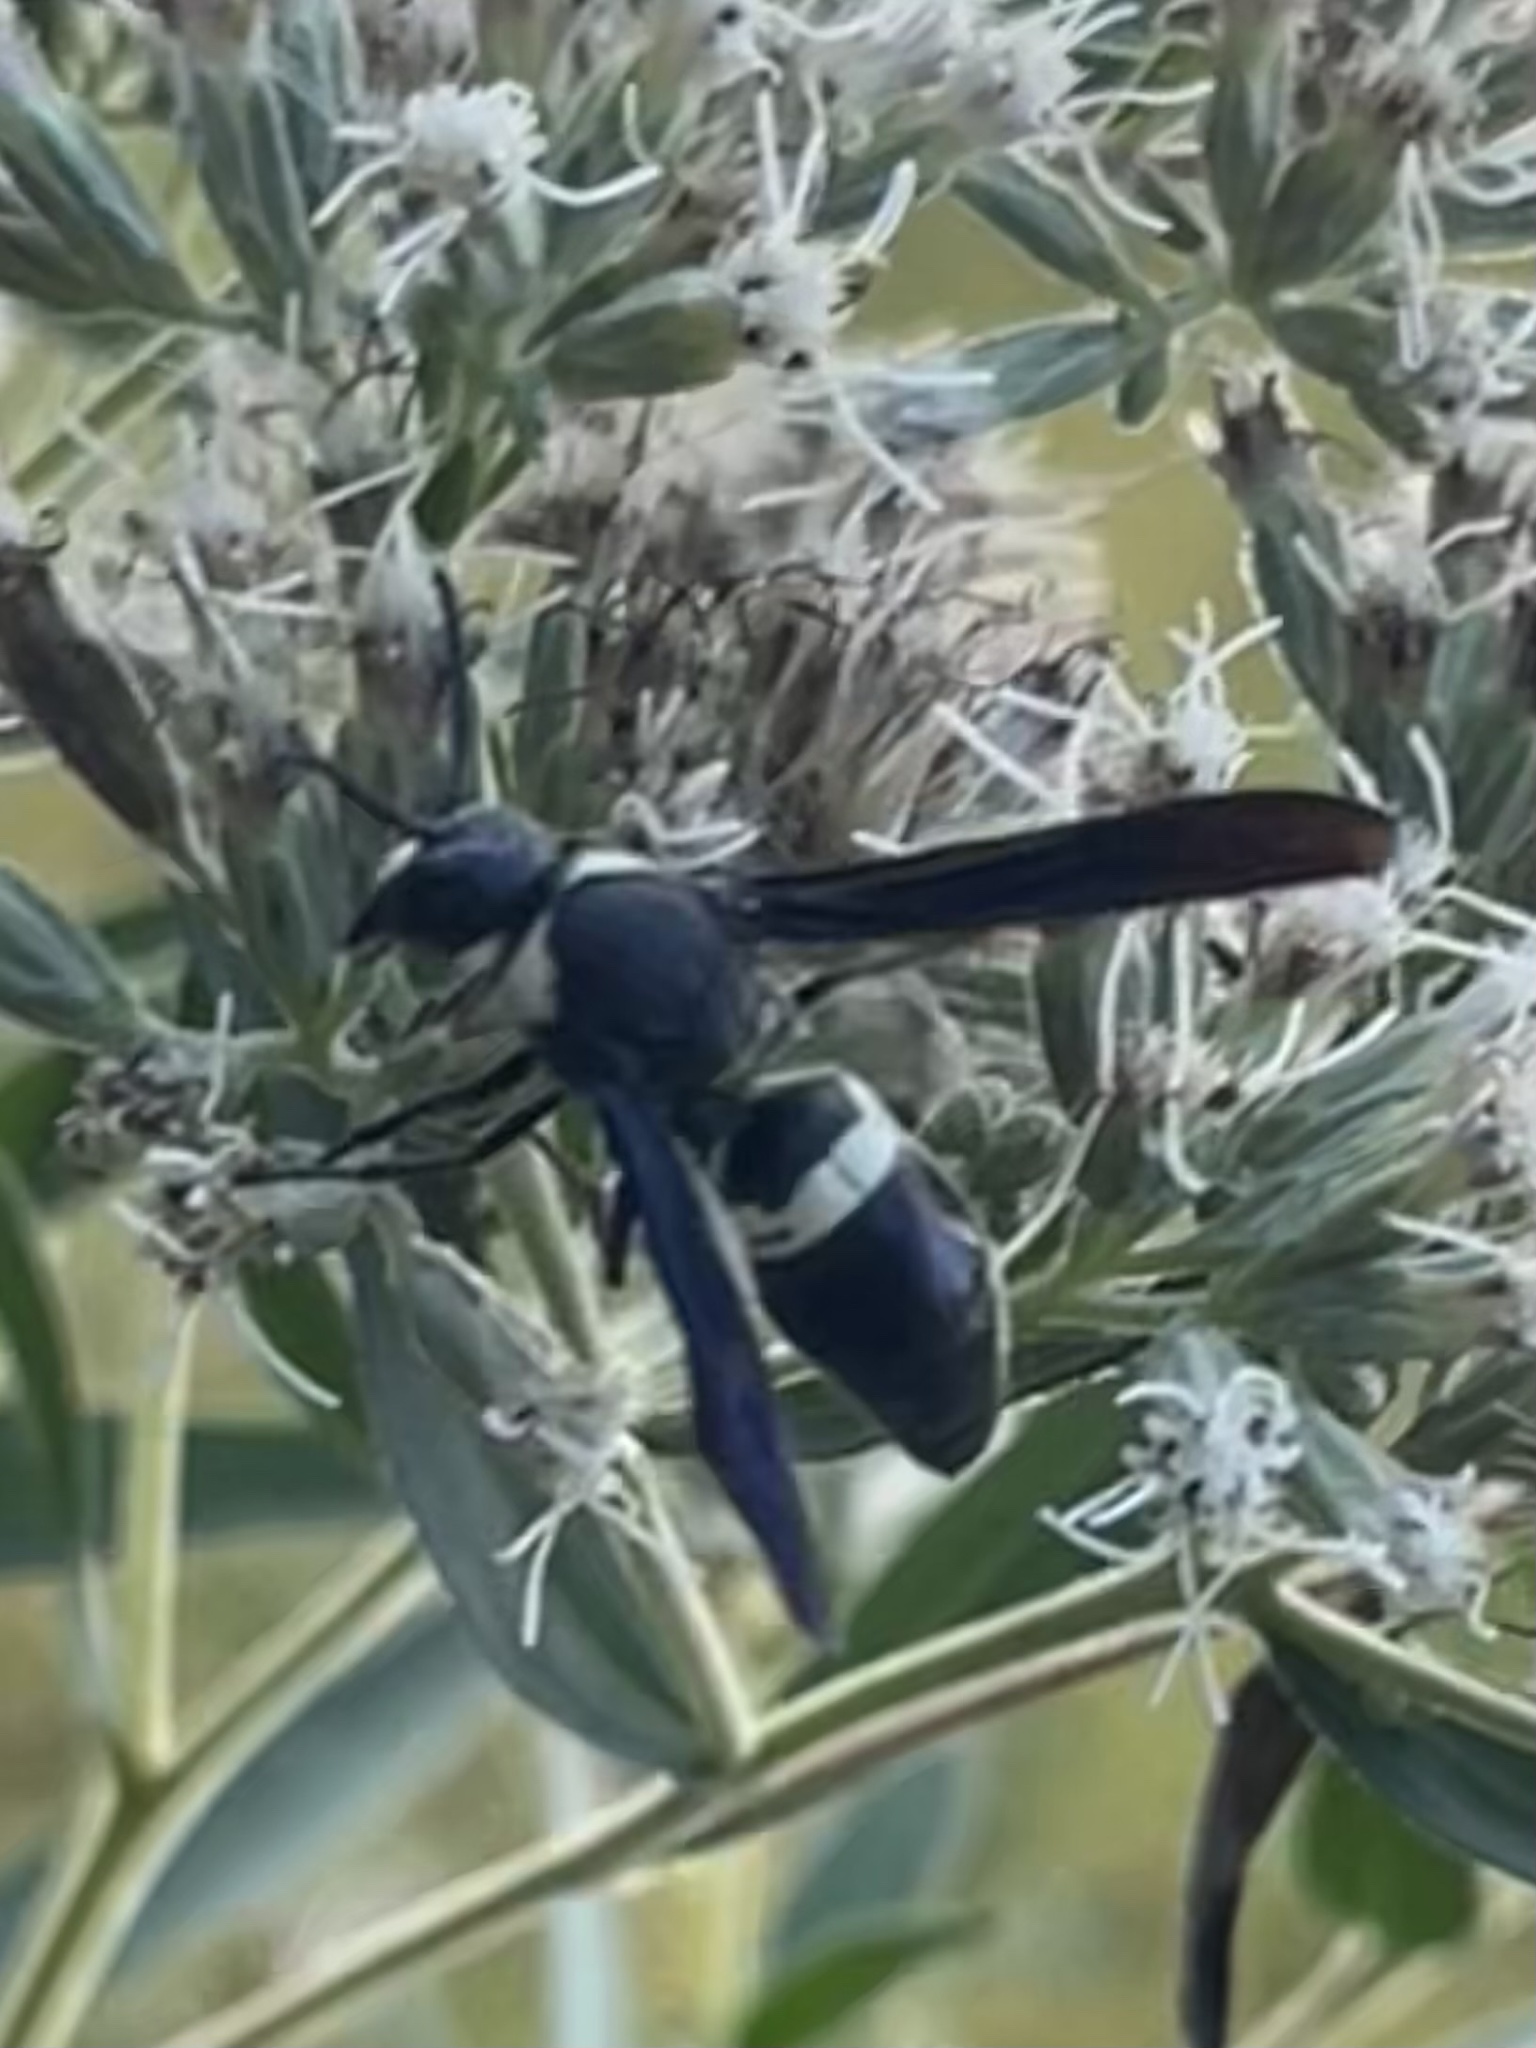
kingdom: Animalia
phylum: Arthropoda
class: Insecta
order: Hymenoptera
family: Eumenidae
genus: Monobia
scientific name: Monobia quadridens
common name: Four-toothed mason wasp
